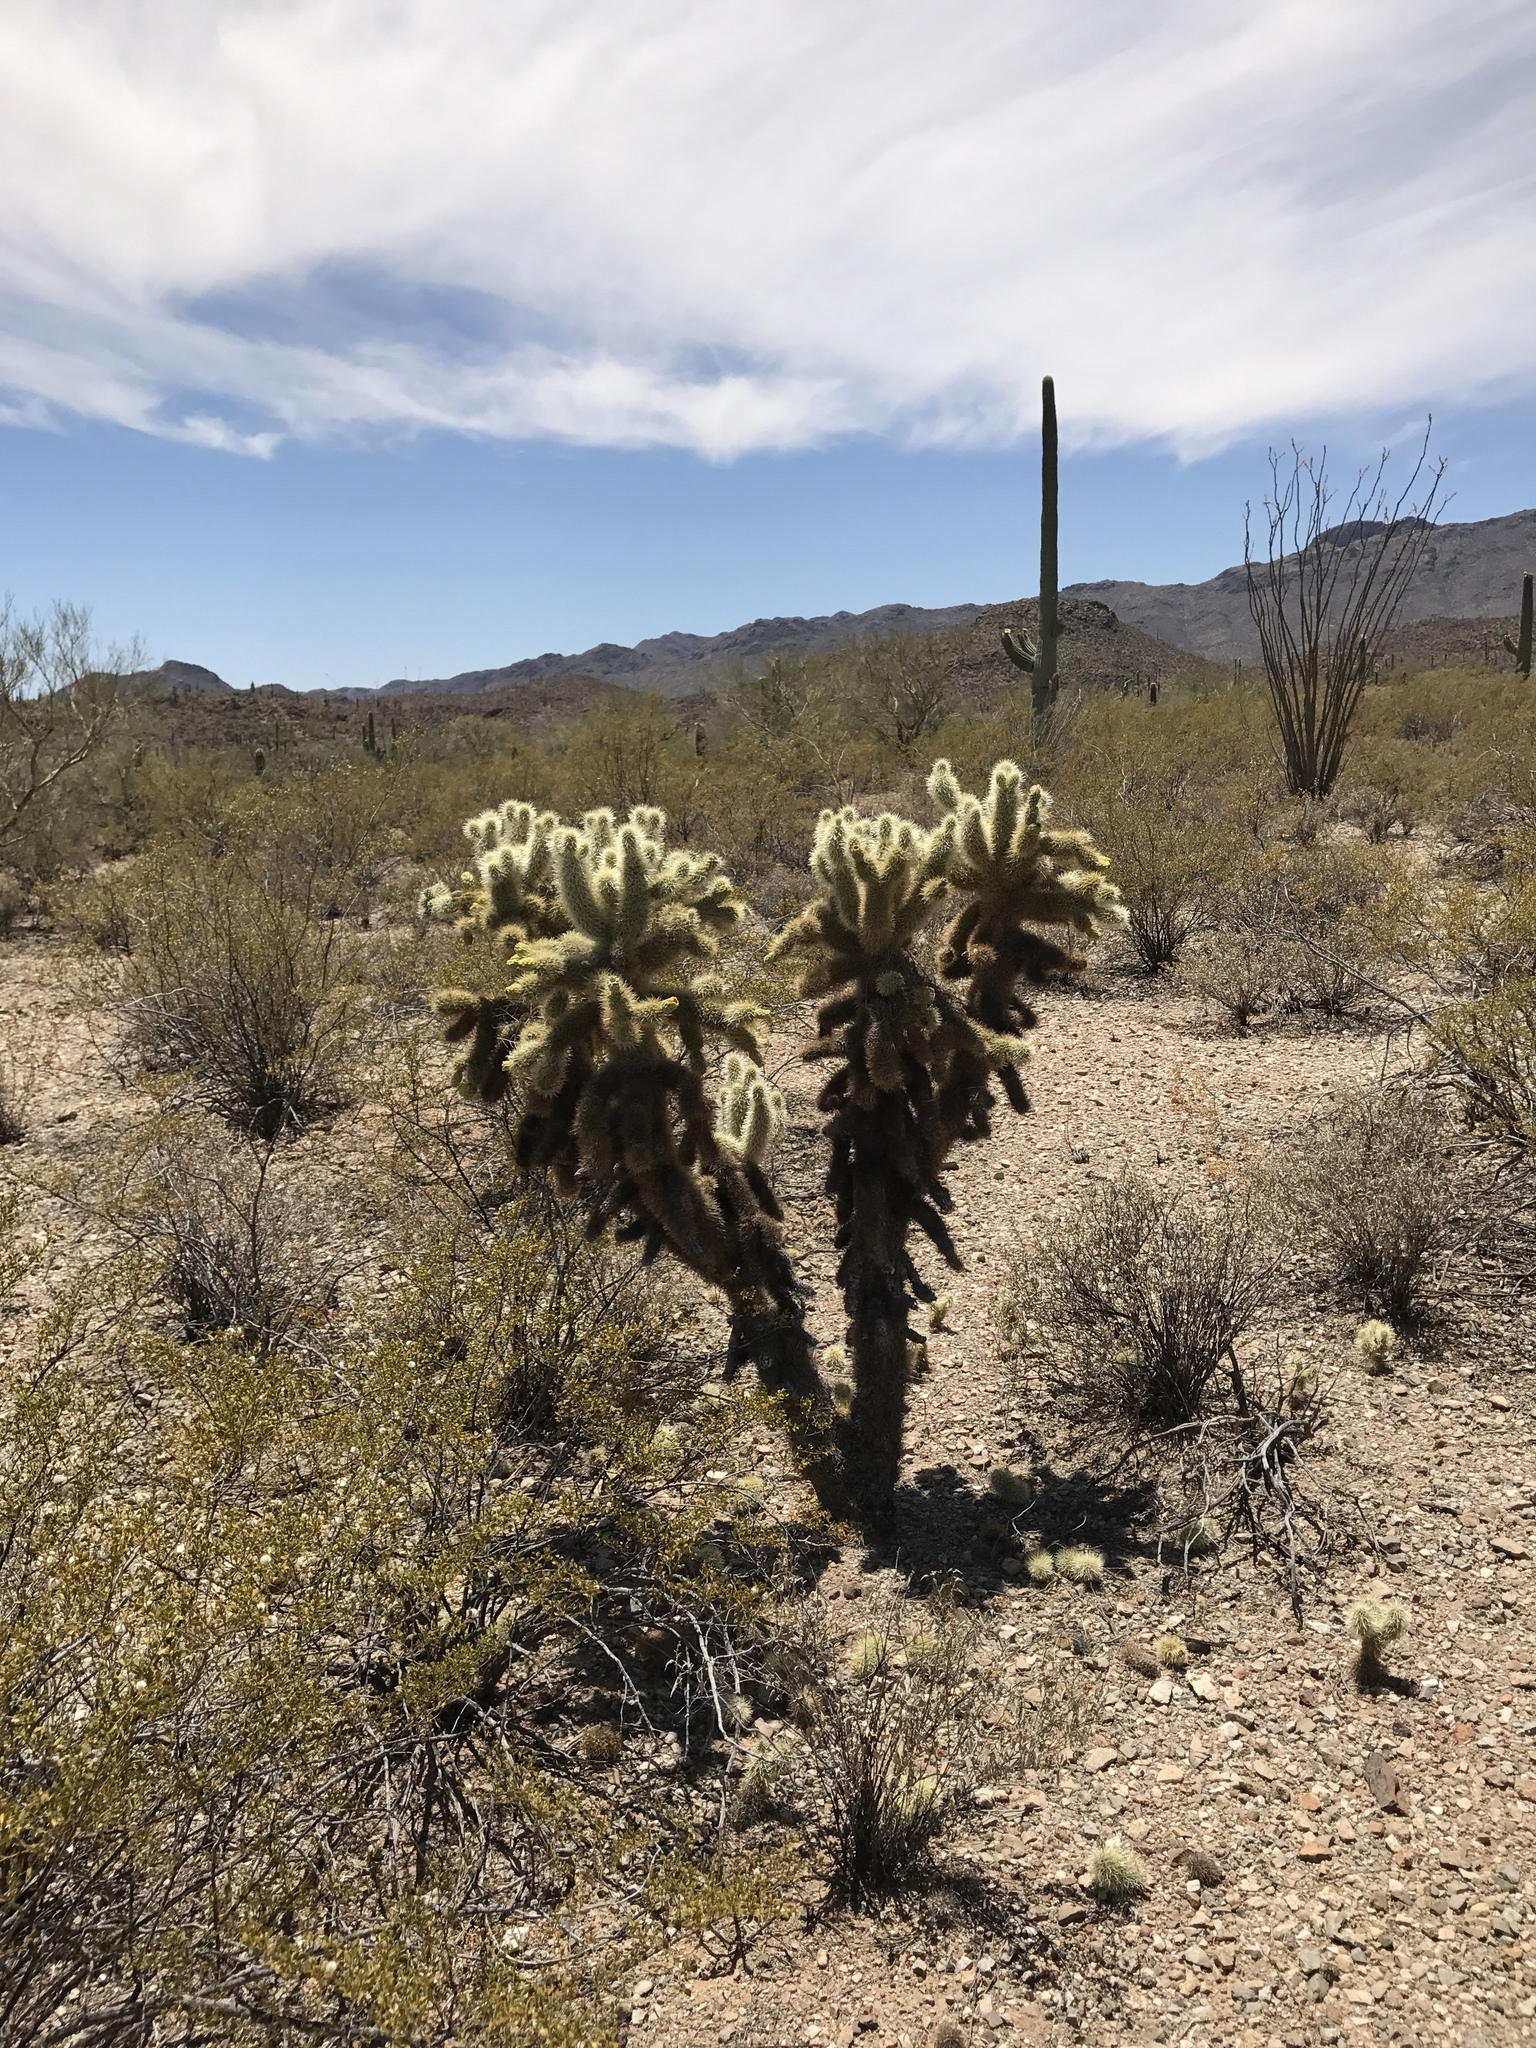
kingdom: Plantae
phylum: Tracheophyta
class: Magnoliopsida
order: Caryophyllales
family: Cactaceae
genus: Cylindropuntia
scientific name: Cylindropuntia fosbergii
